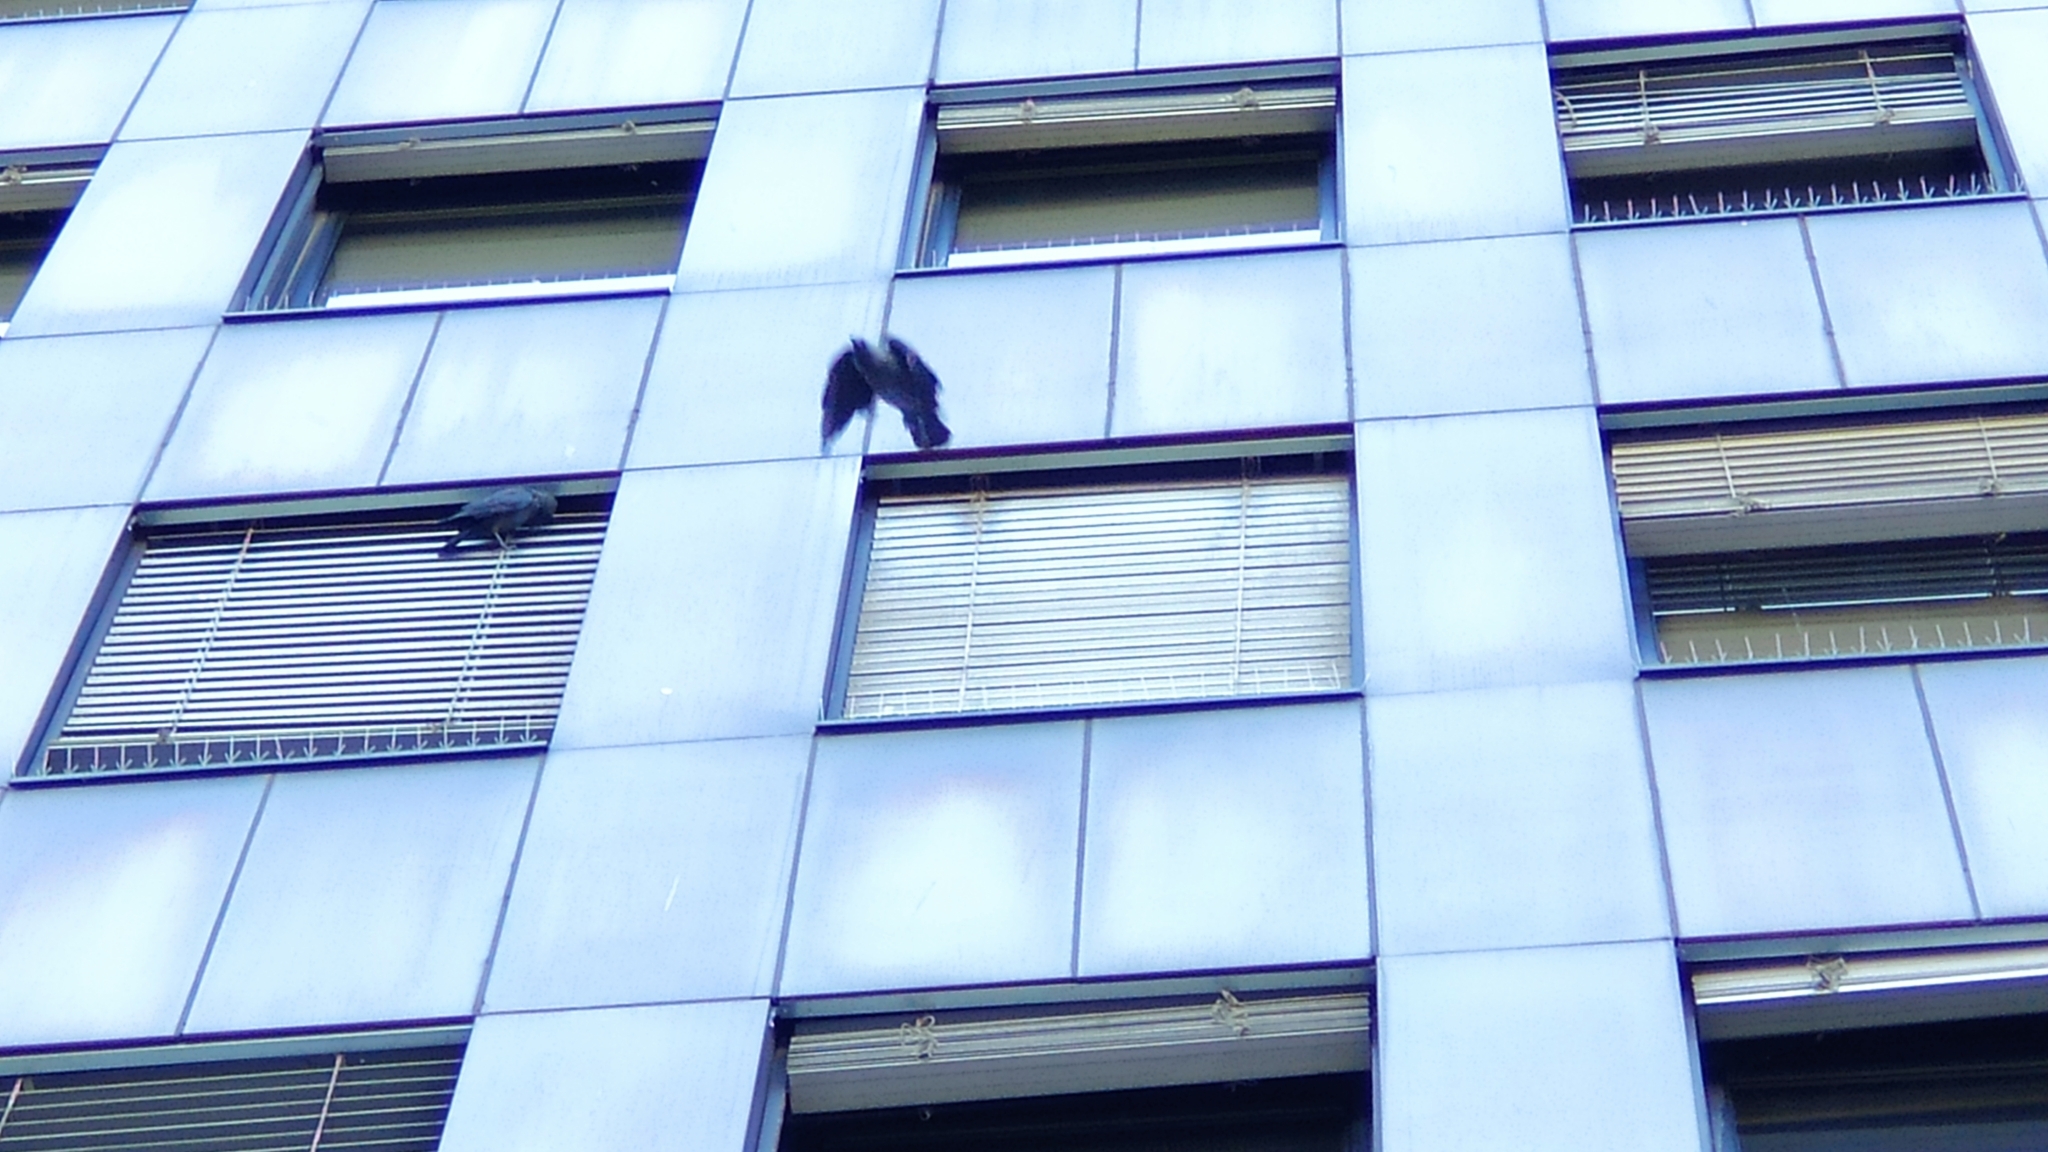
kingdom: Animalia
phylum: Chordata
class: Aves
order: Passeriformes
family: Corvidae
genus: Coloeus
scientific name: Coloeus monedula
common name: Western jackdaw
